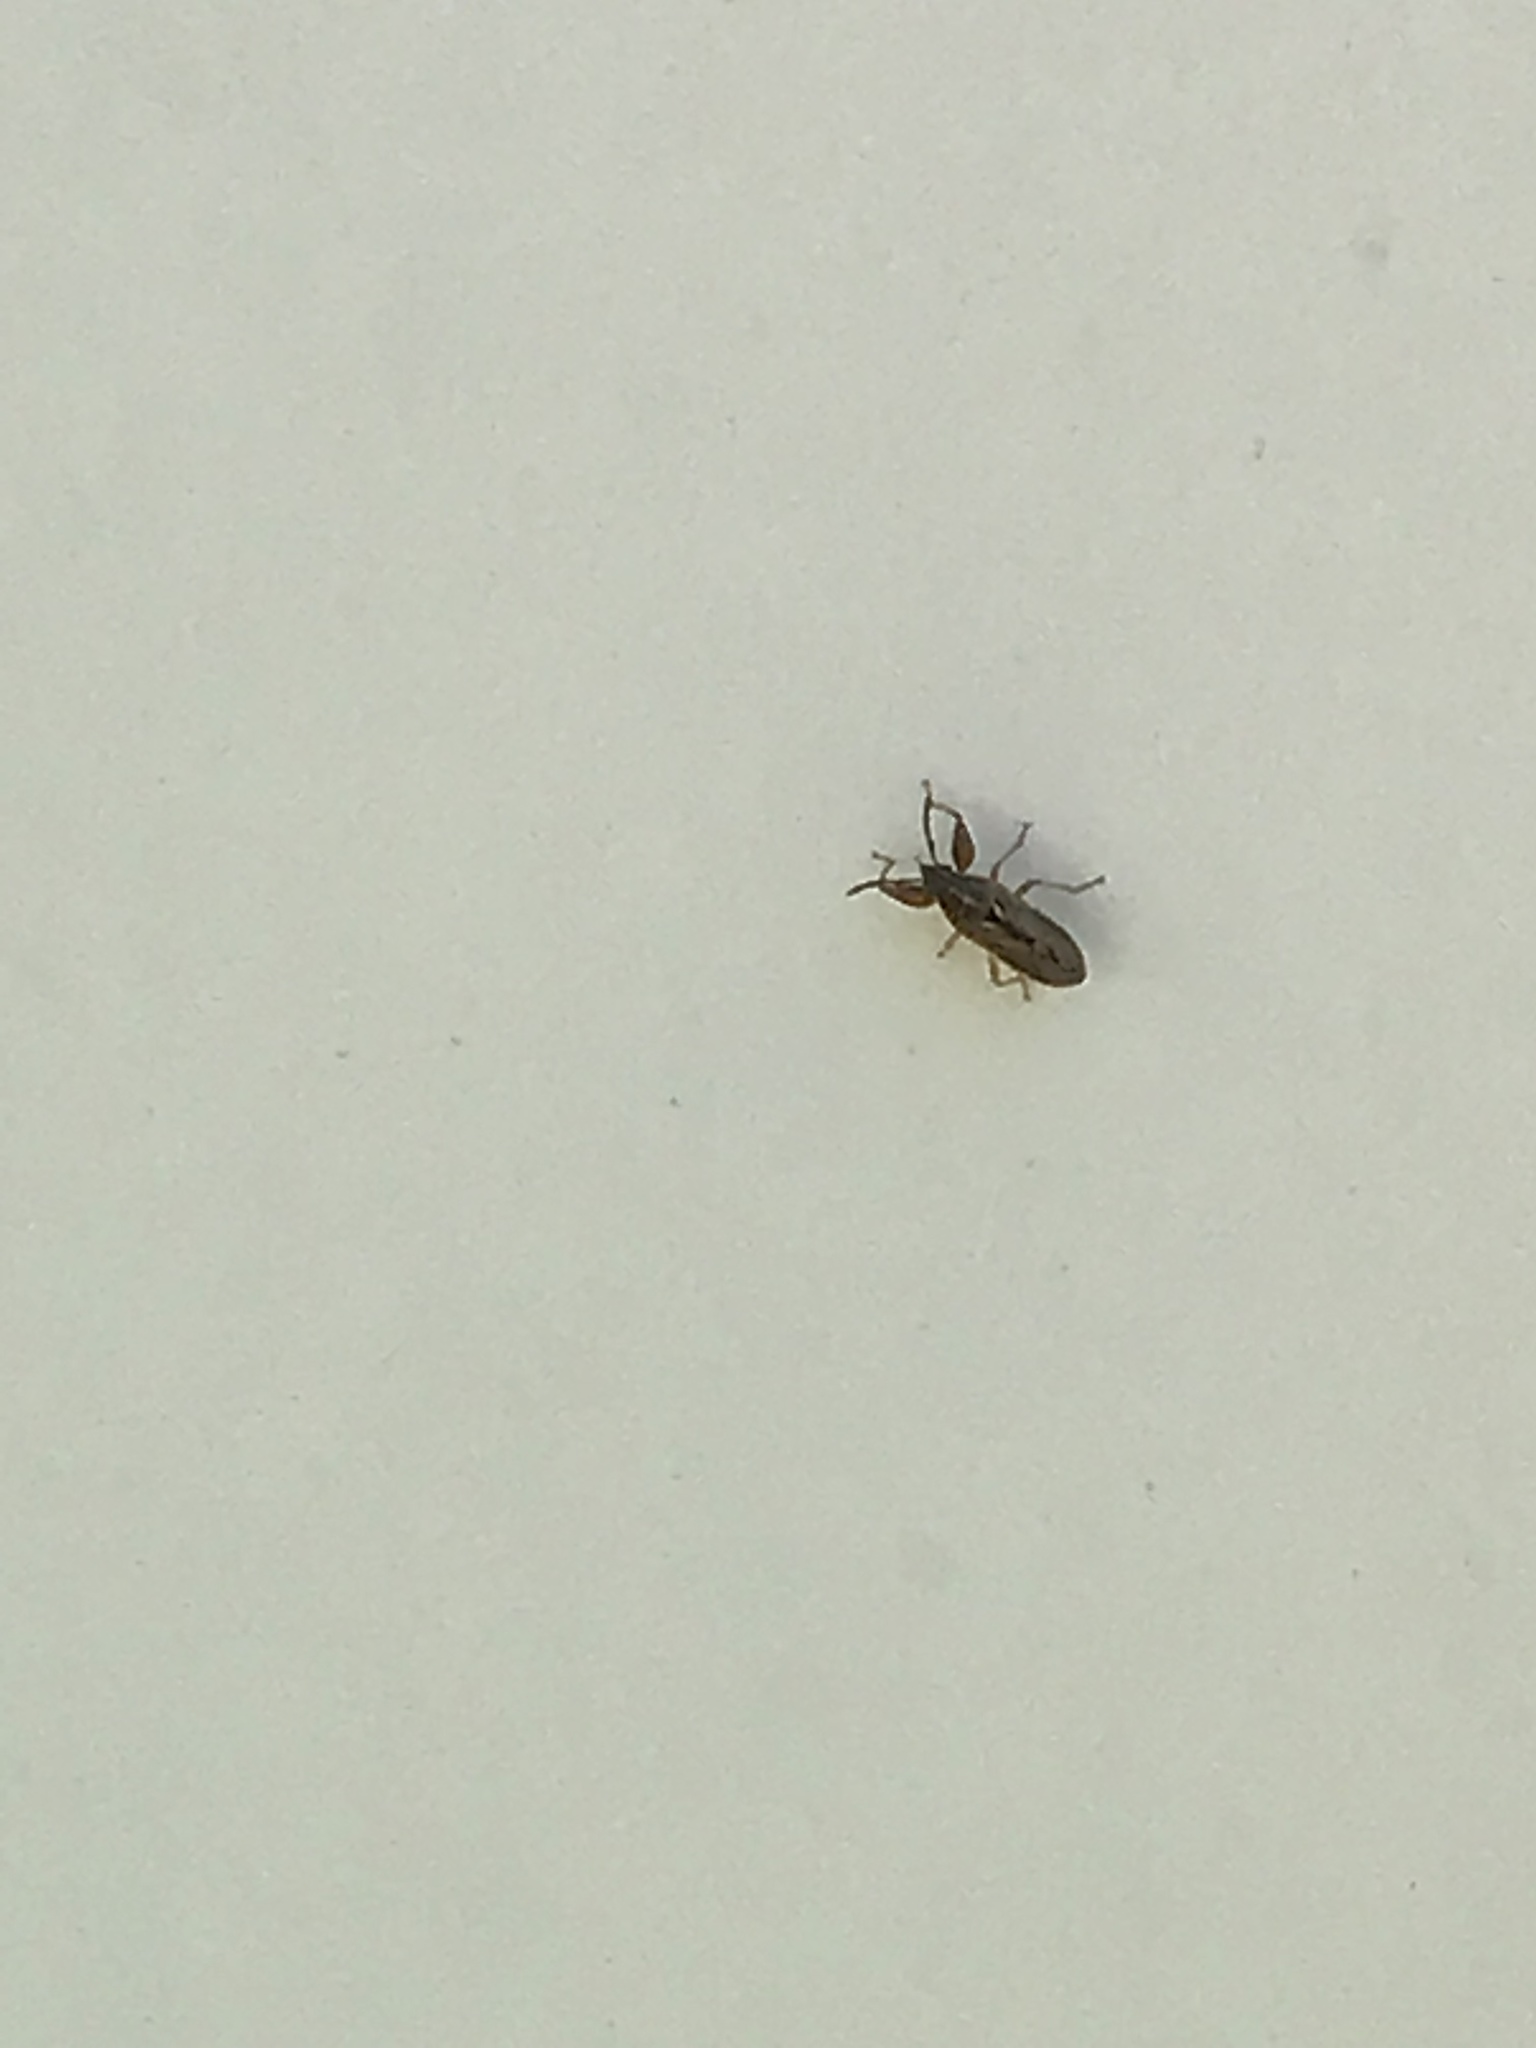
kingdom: Animalia
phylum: Arthropoda
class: Insecta
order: Hemiptera
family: Pachygronthidae
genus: Oedancala
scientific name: Oedancala dorsalis
